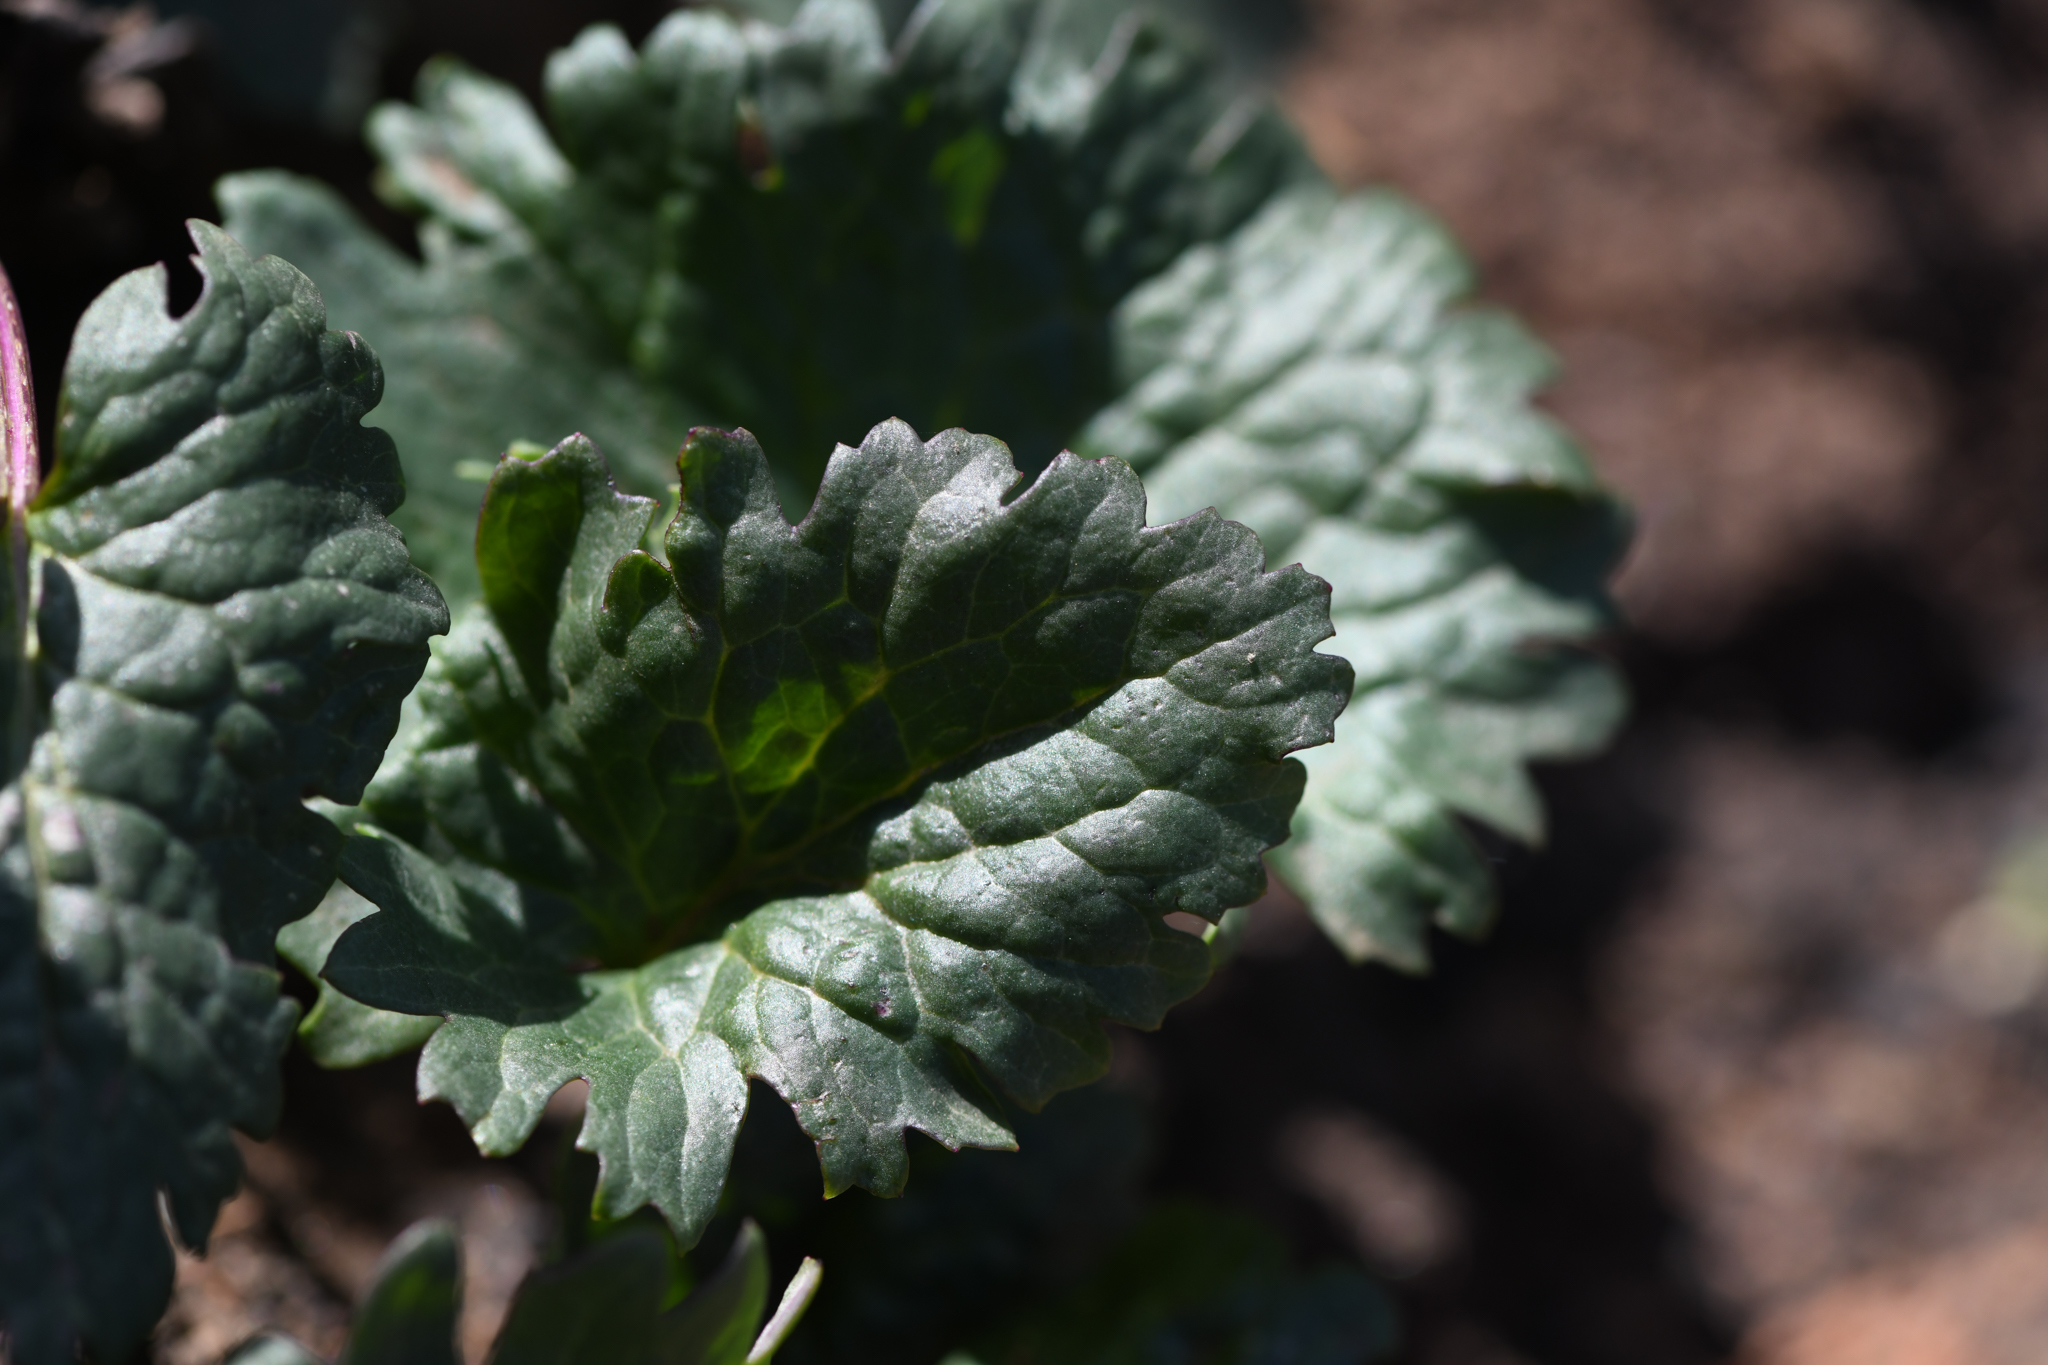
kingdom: Plantae
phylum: Tracheophyta
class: Magnoliopsida
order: Asterales
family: Asteraceae
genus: Packera
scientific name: Packera ganderi
